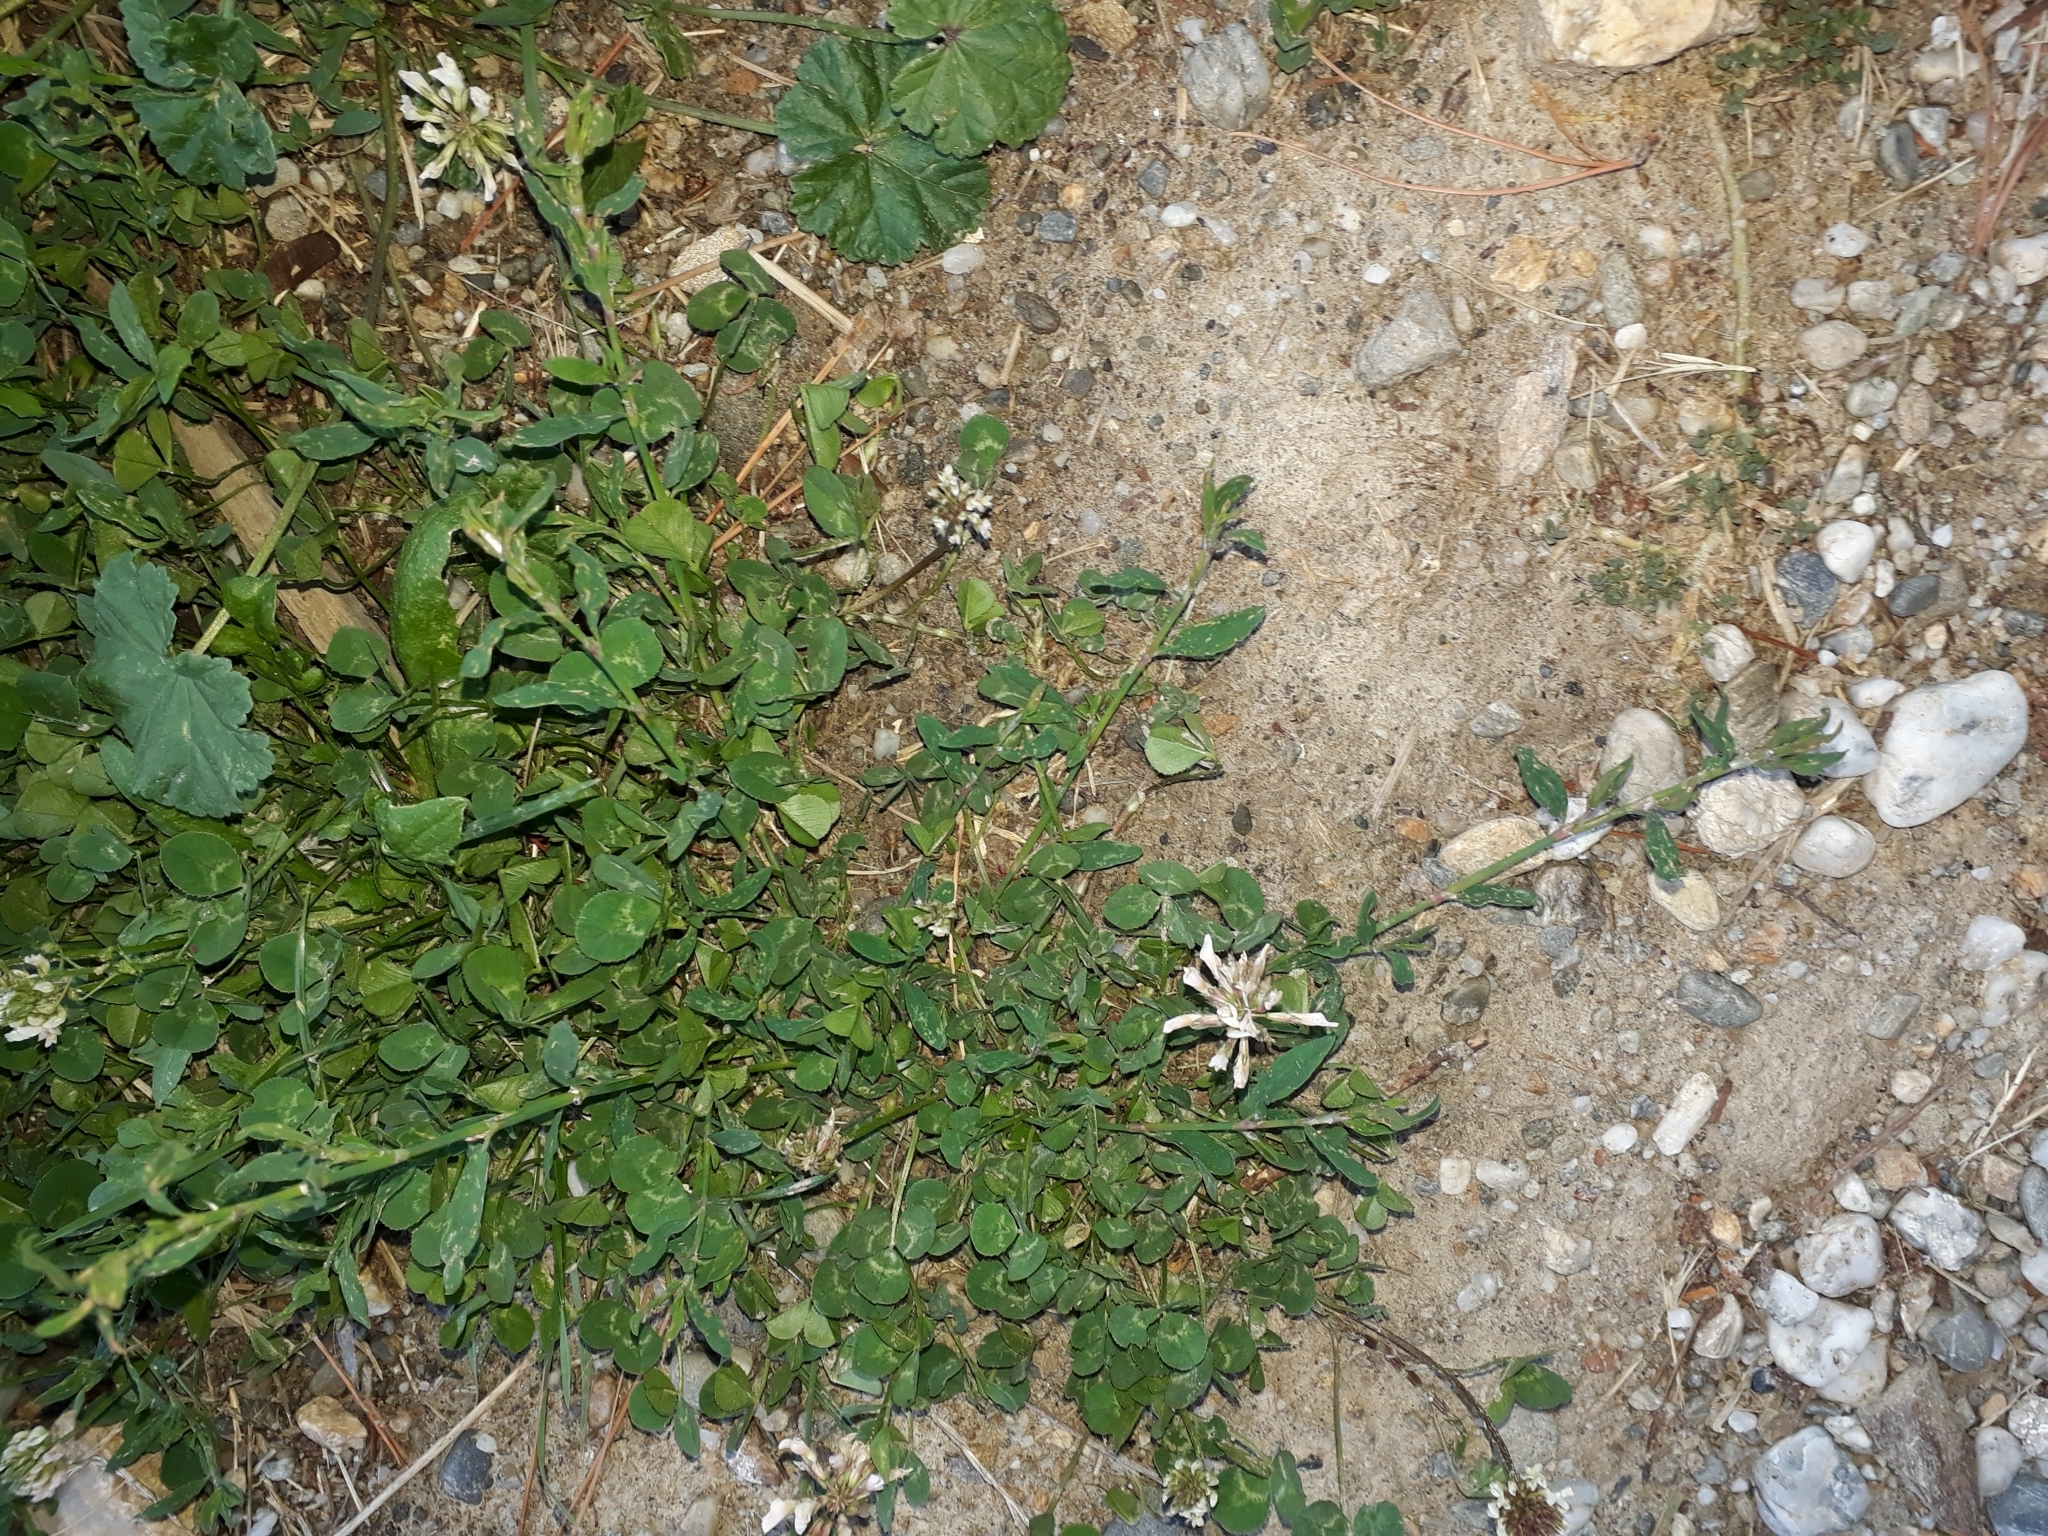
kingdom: Plantae
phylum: Tracheophyta
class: Magnoliopsida
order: Fabales
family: Fabaceae
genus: Trifolium
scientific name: Trifolium repens
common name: White clover
